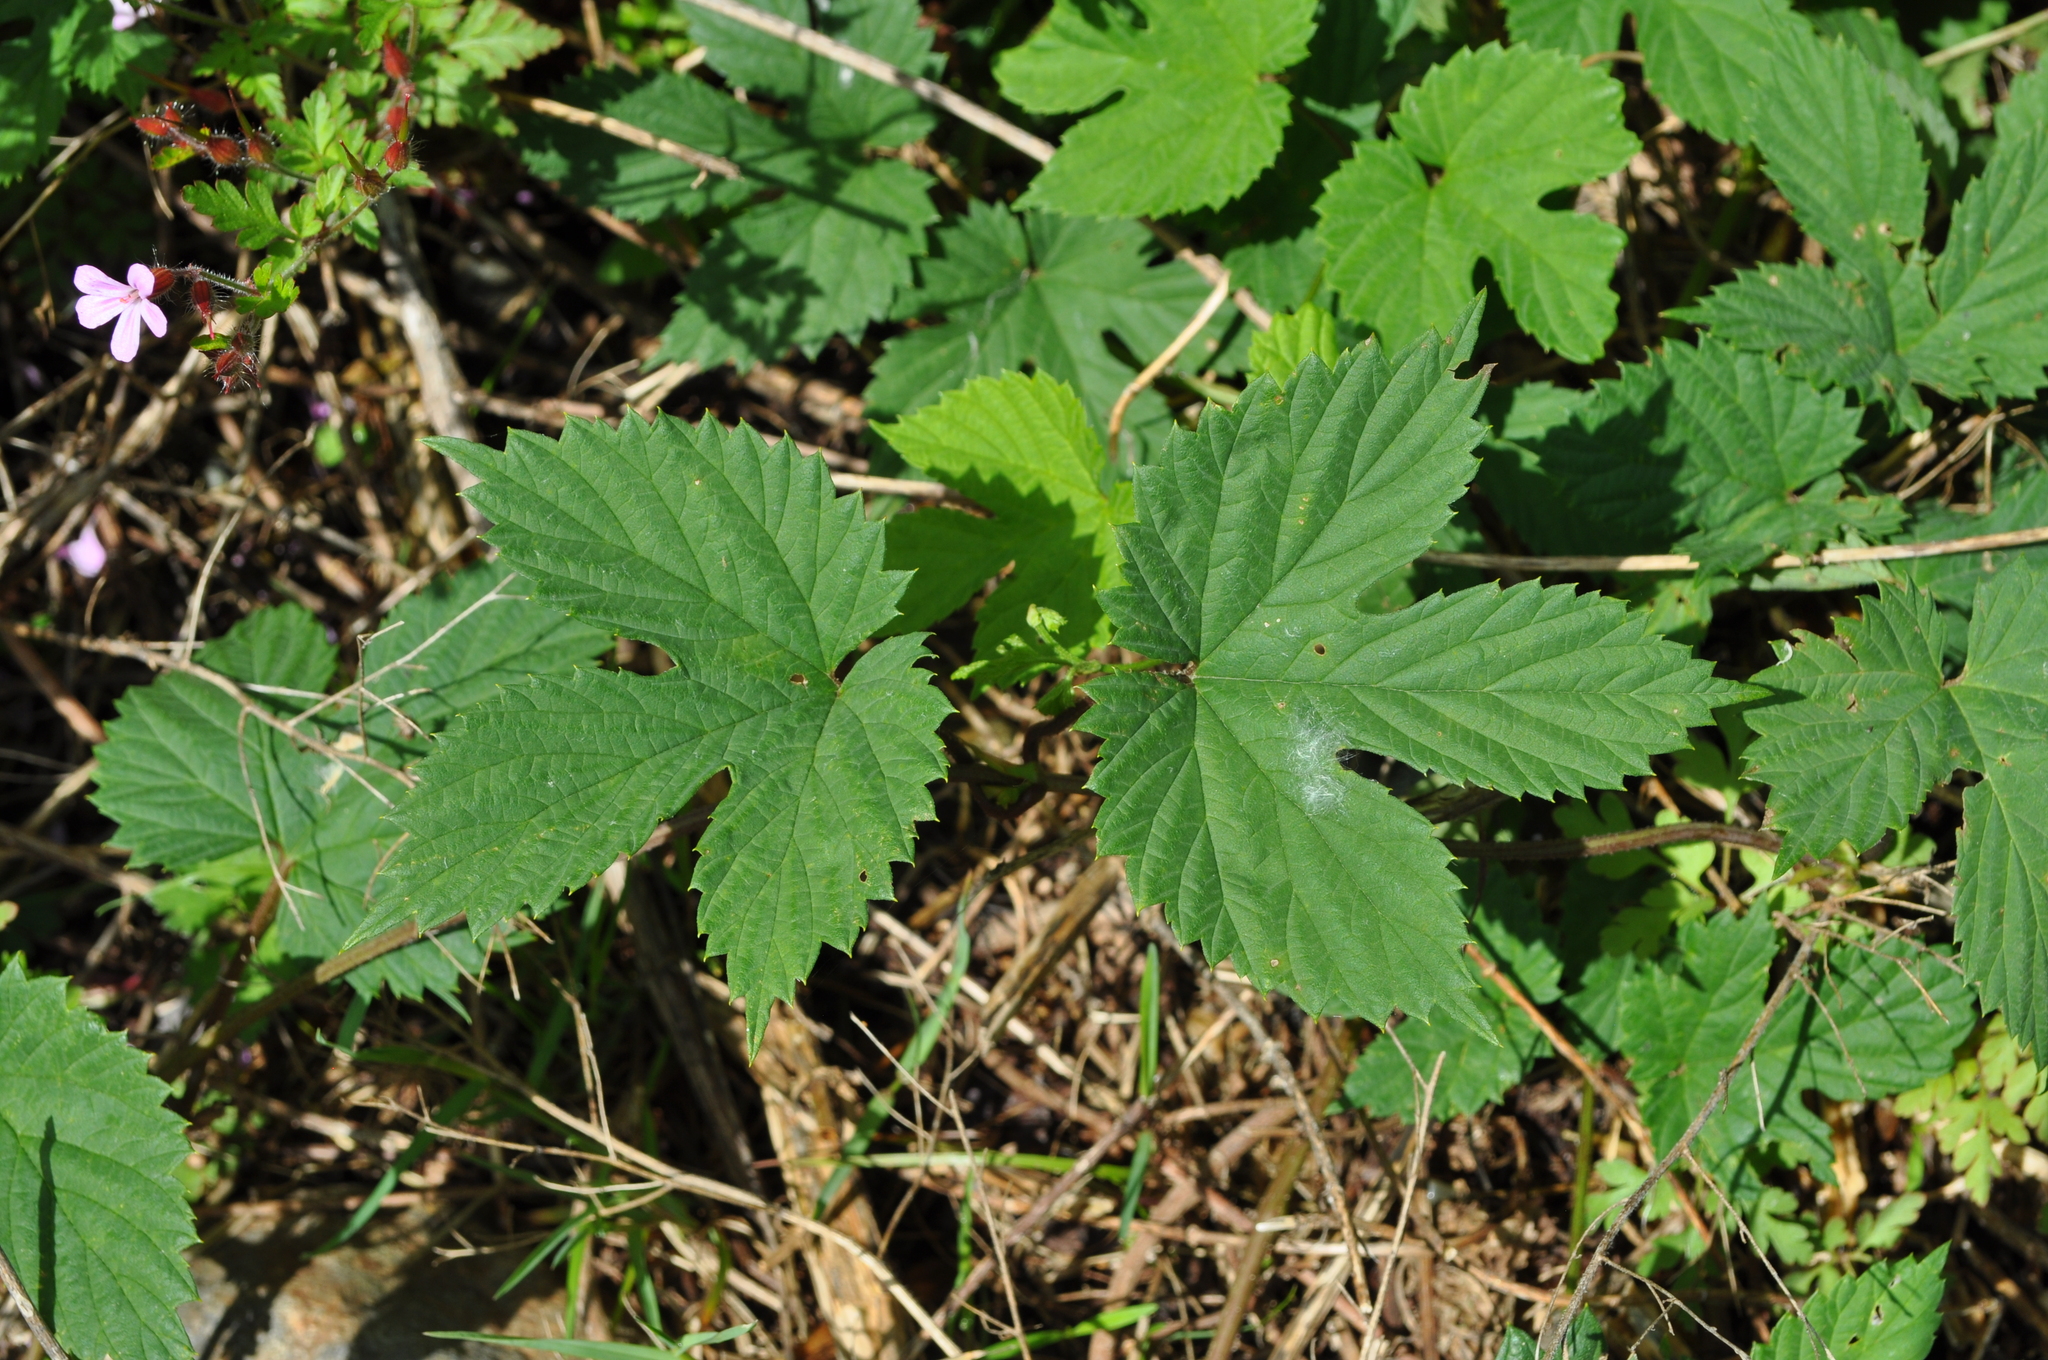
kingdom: Plantae
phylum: Tracheophyta
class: Magnoliopsida
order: Rosales
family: Cannabaceae
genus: Humulus
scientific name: Humulus lupulus
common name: Hop
